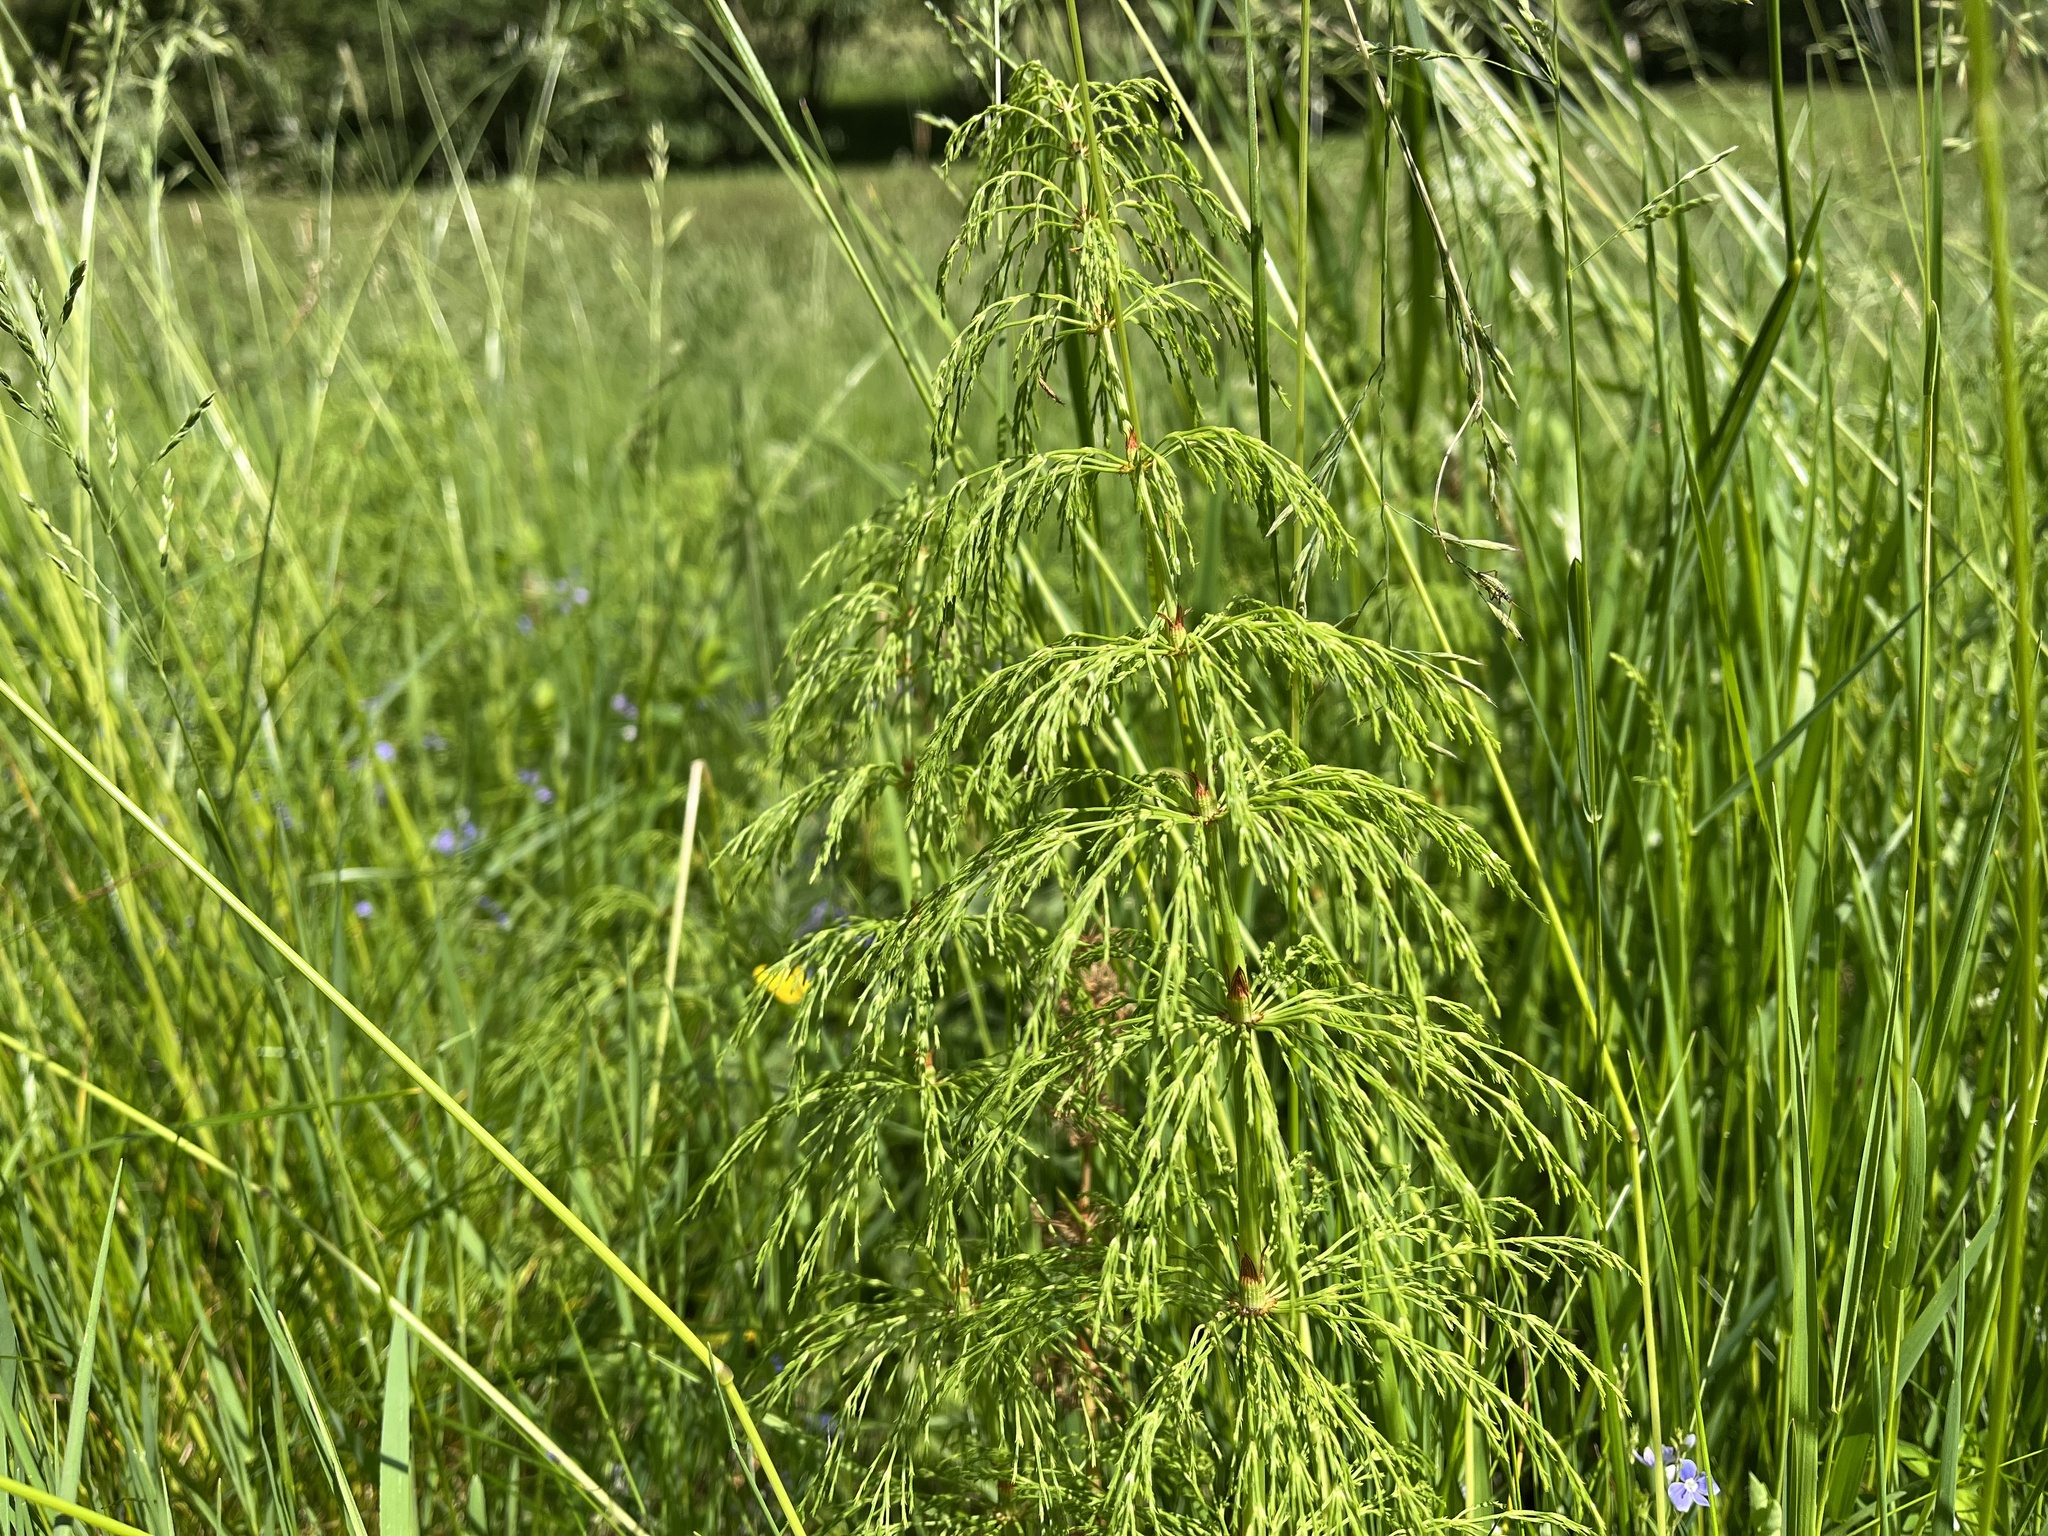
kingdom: Plantae
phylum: Tracheophyta
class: Polypodiopsida
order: Equisetales
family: Equisetaceae
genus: Equisetum
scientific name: Equisetum sylvaticum
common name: Wood horsetail
